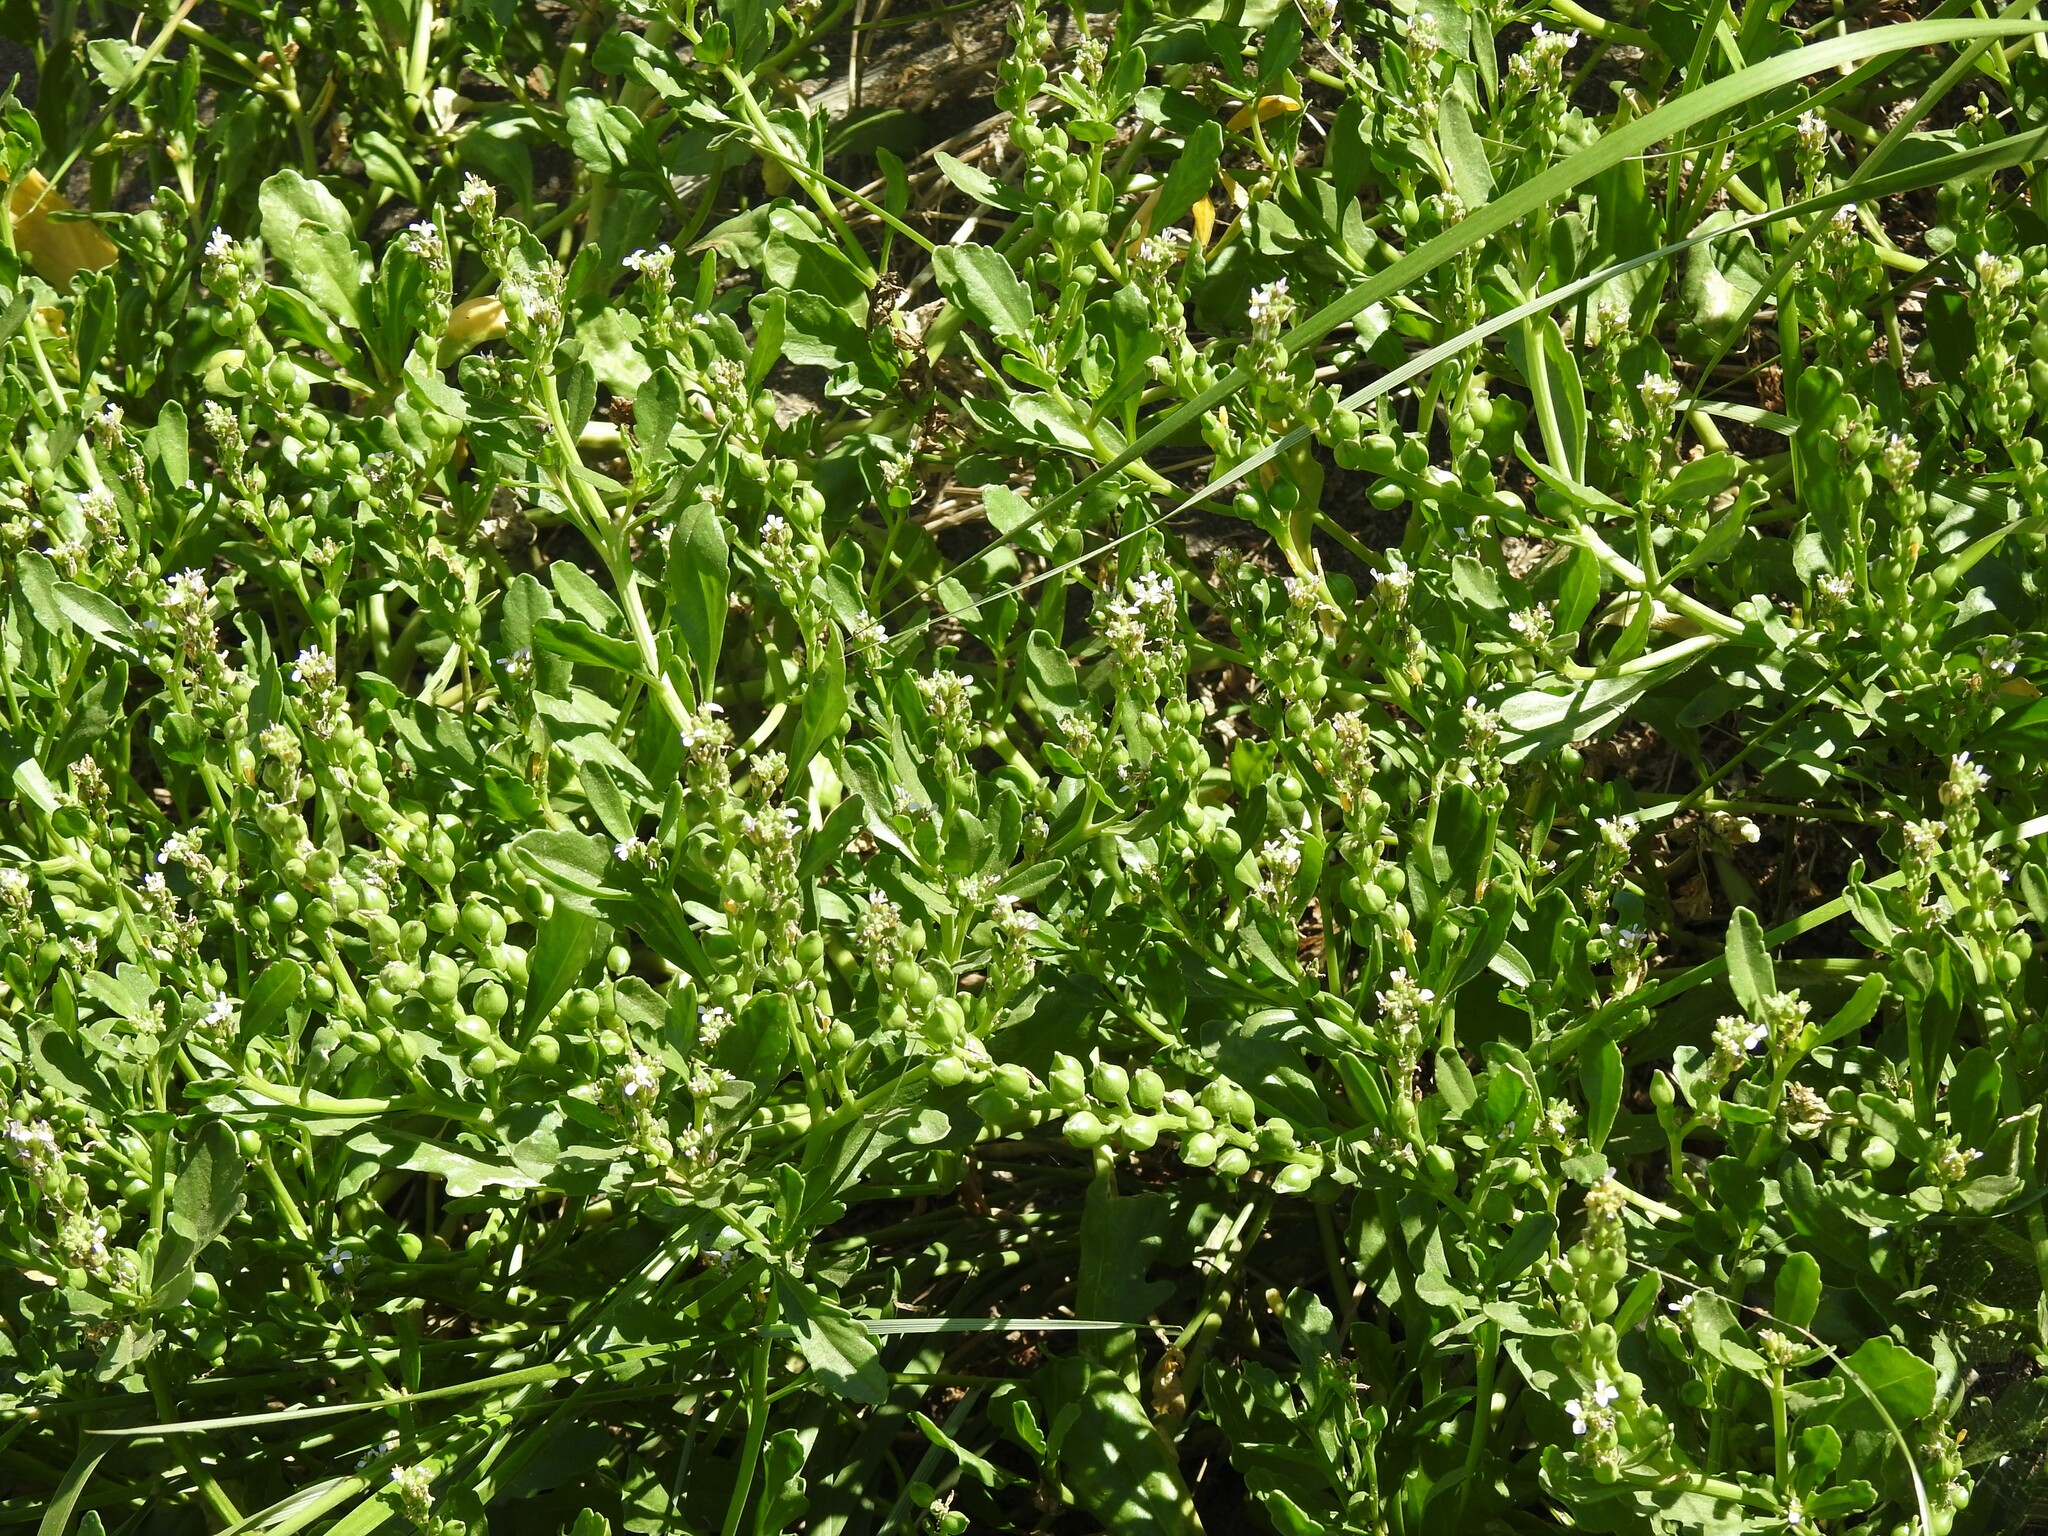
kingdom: Plantae
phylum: Tracheophyta
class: Magnoliopsida
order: Brassicales
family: Brassicaceae
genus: Cakile
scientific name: Cakile edentula
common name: American sea rocket
